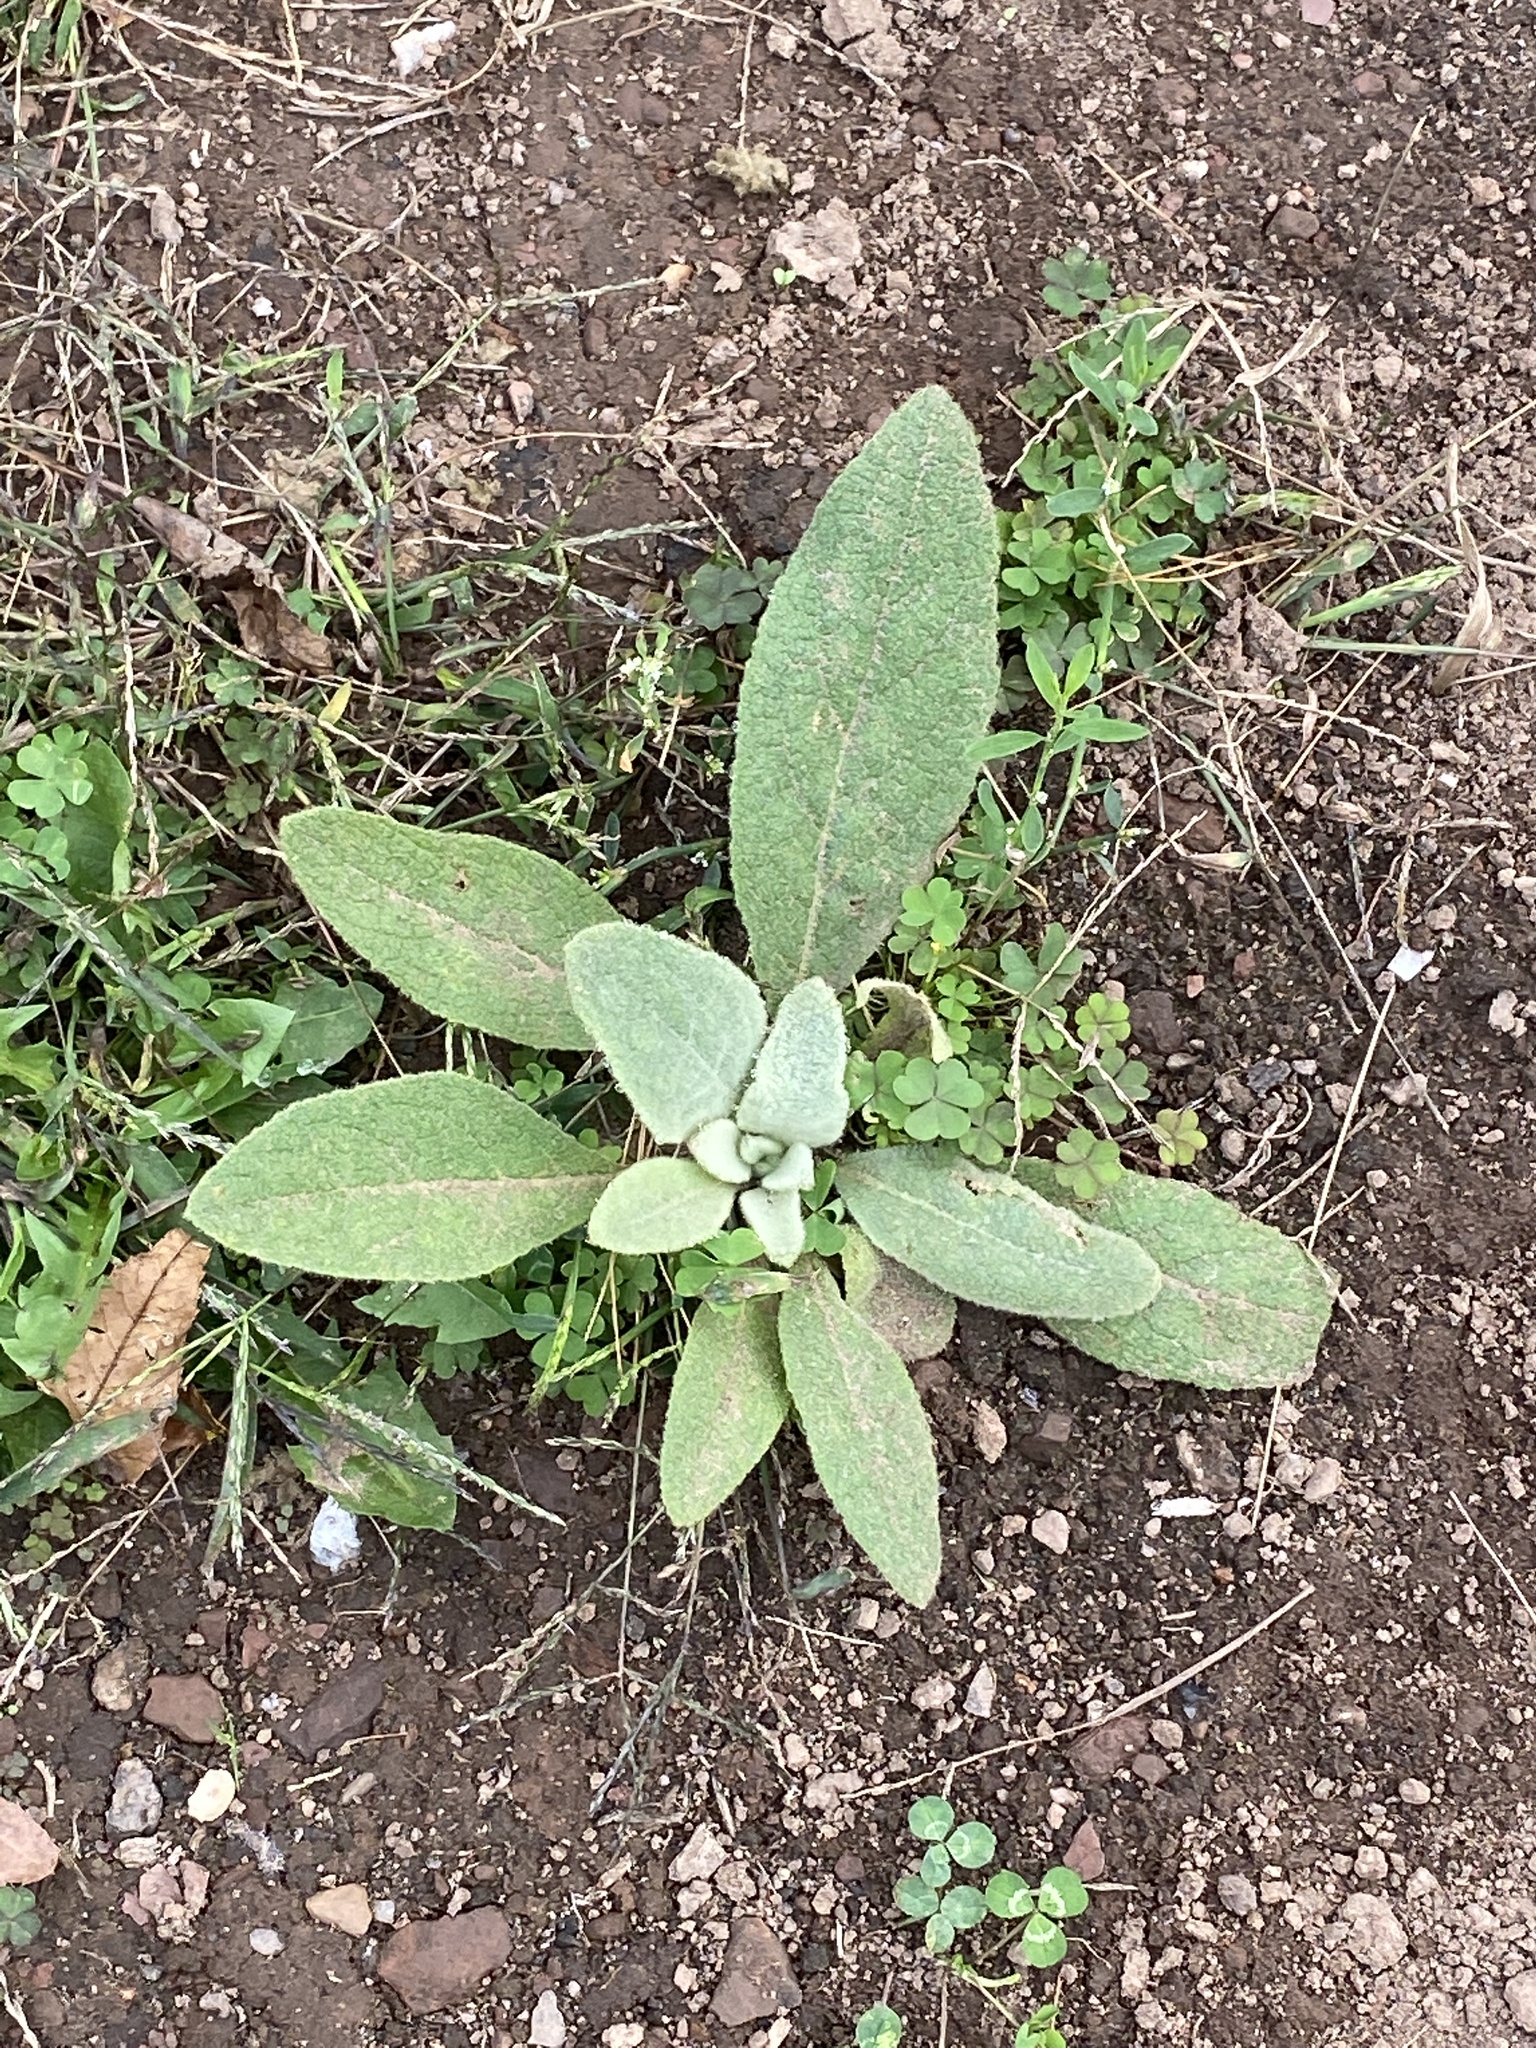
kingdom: Plantae
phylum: Tracheophyta
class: Magnoliopsida
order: Lamiales
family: Scrophulariaceae
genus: Verbascum
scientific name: Verbascum thapsus
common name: Common mullein
